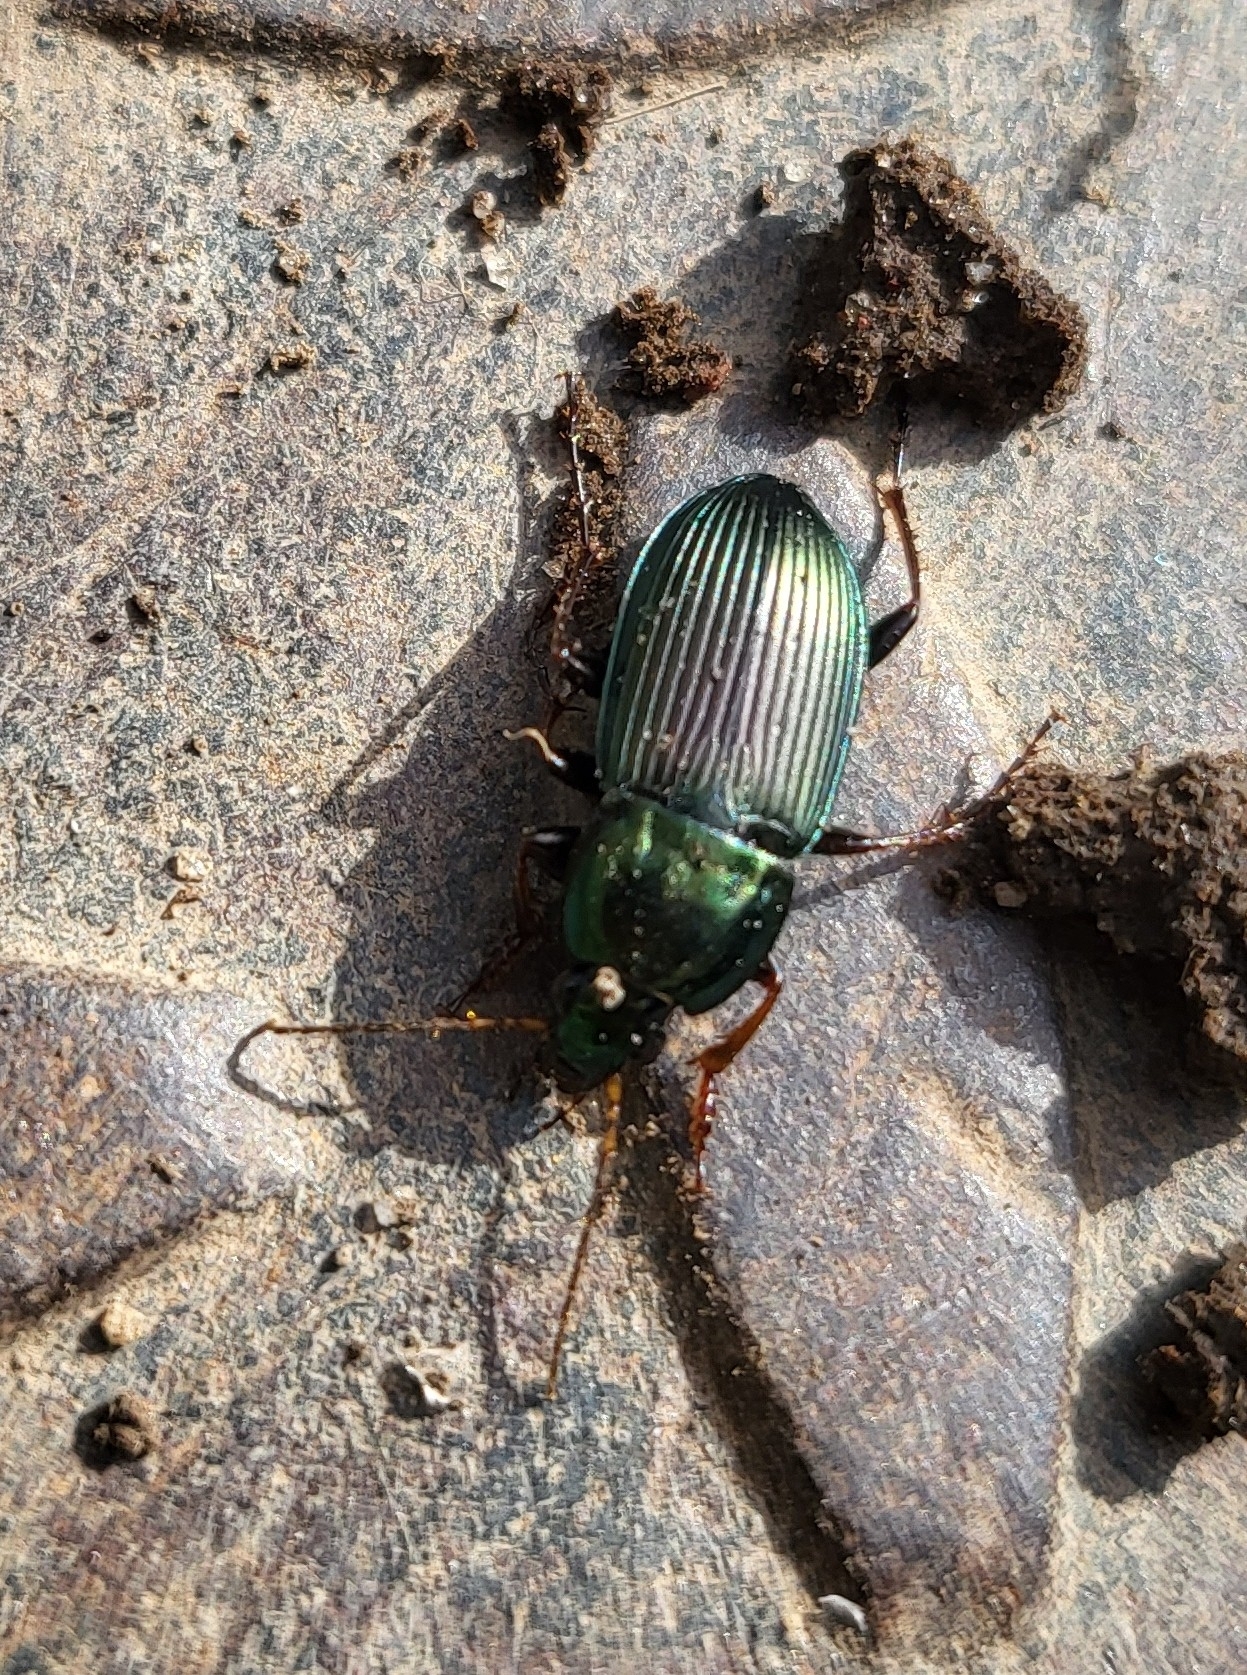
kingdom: Animalia
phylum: Arthropoda
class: Insecta
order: Coleoptera
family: Carabidae
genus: Poecilus
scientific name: Poecilus lucublandus
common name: Woodland ground beetle
